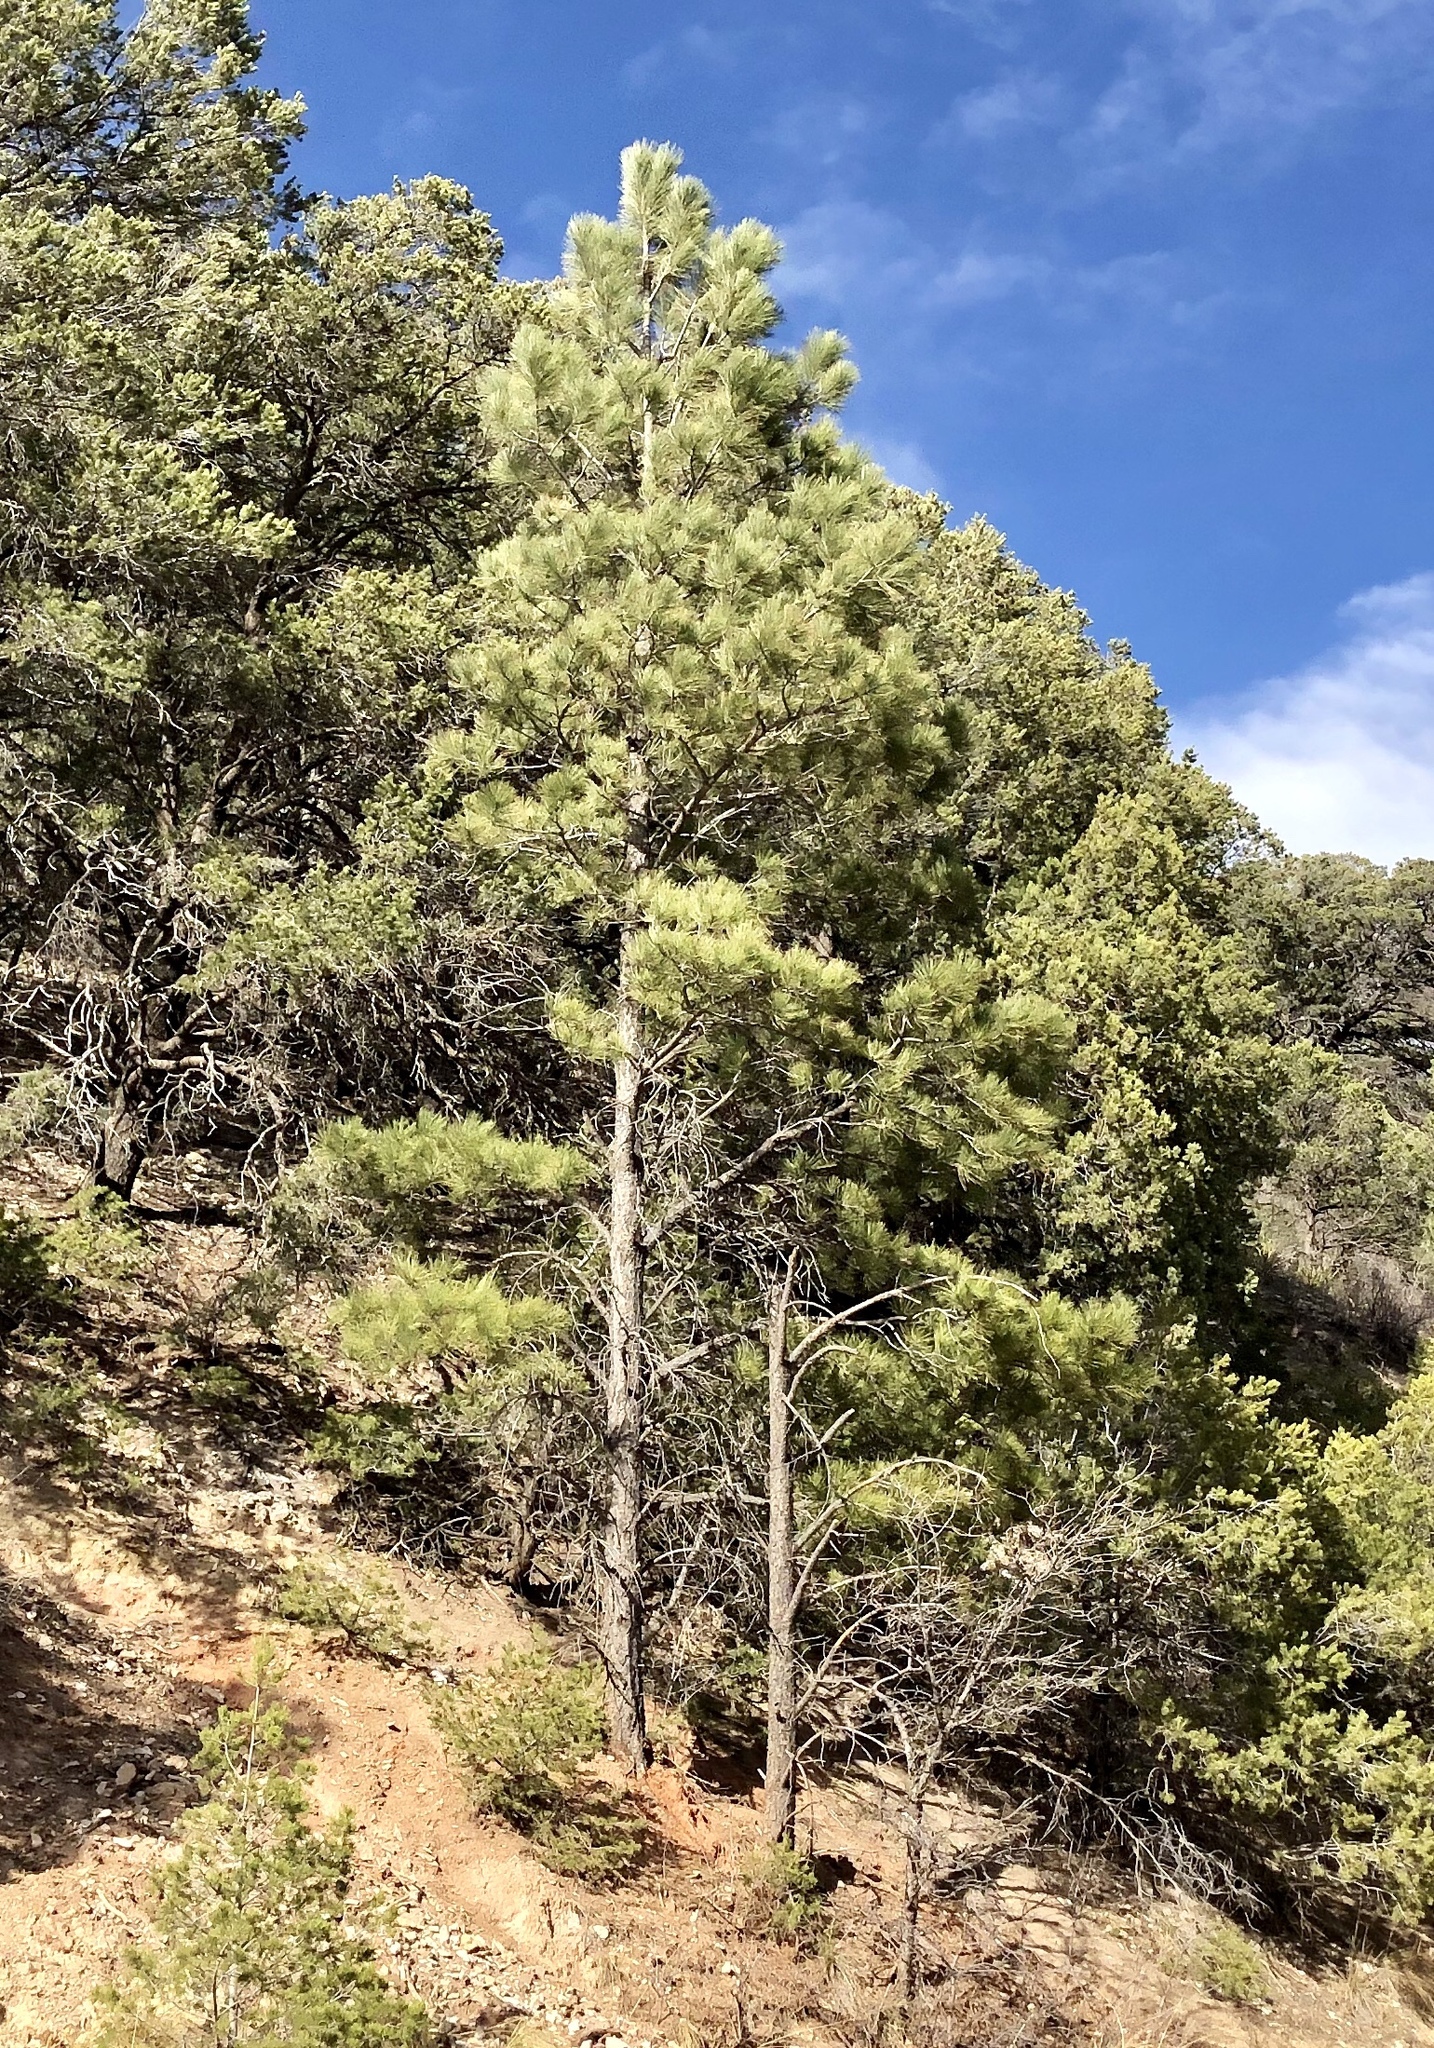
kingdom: Plantae
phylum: Tracheophyta
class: Pinopsida
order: Pinales
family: Pinaceae
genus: Pinus
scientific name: Pinus ponderosa
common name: Western yellow-pine
